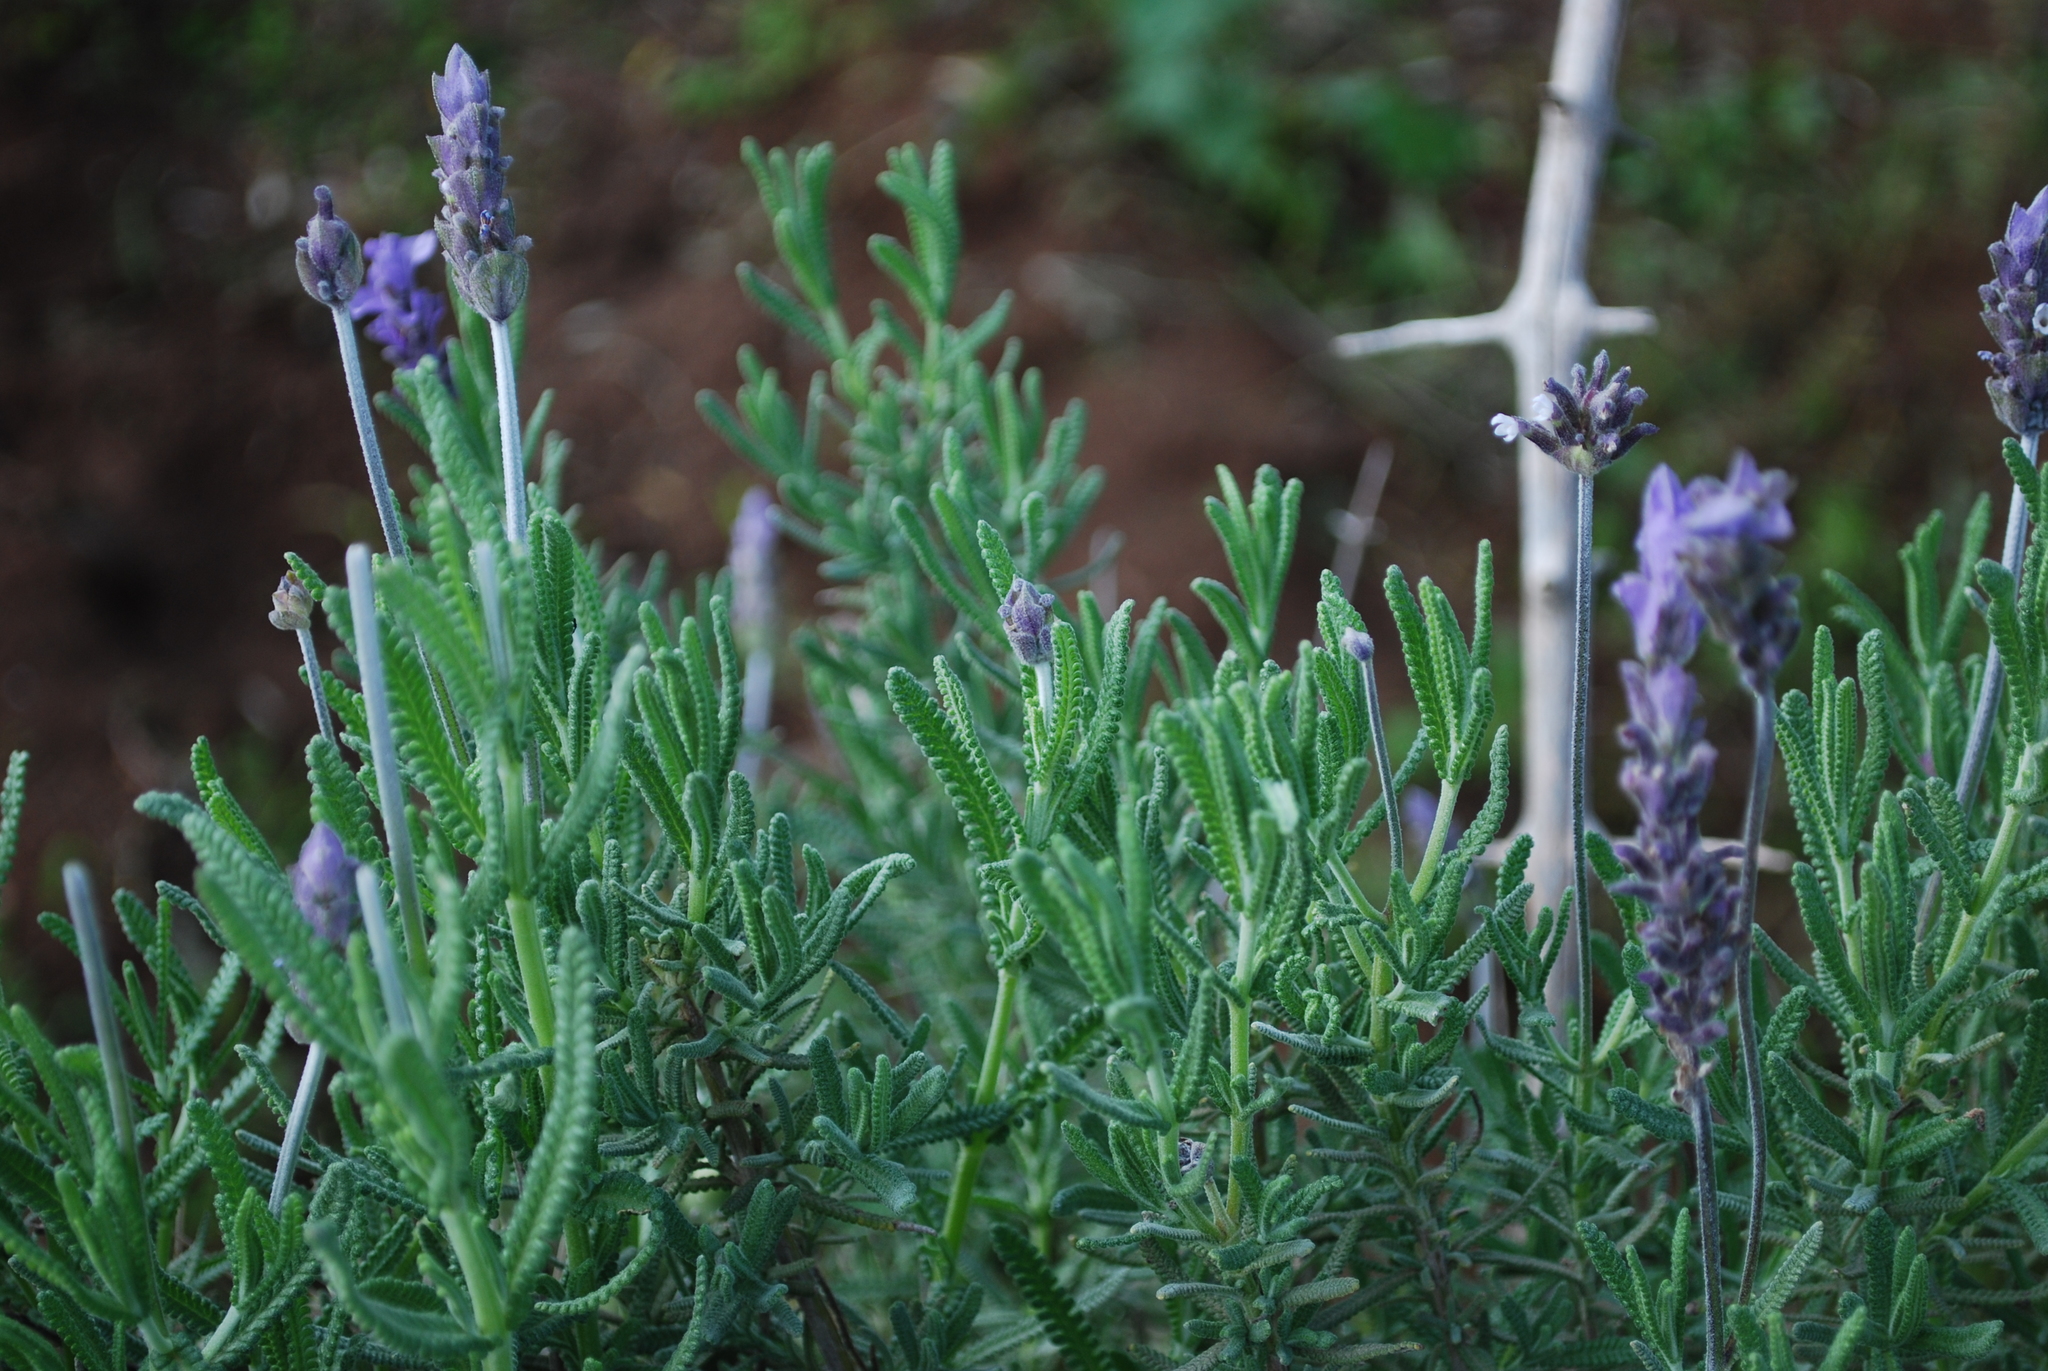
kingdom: Plantae
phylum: Tracheophyta
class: Magnoliopsida
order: Lamiales
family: Lamiaceae
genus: Lavandula
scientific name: Lavandula dentata
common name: French lavender
